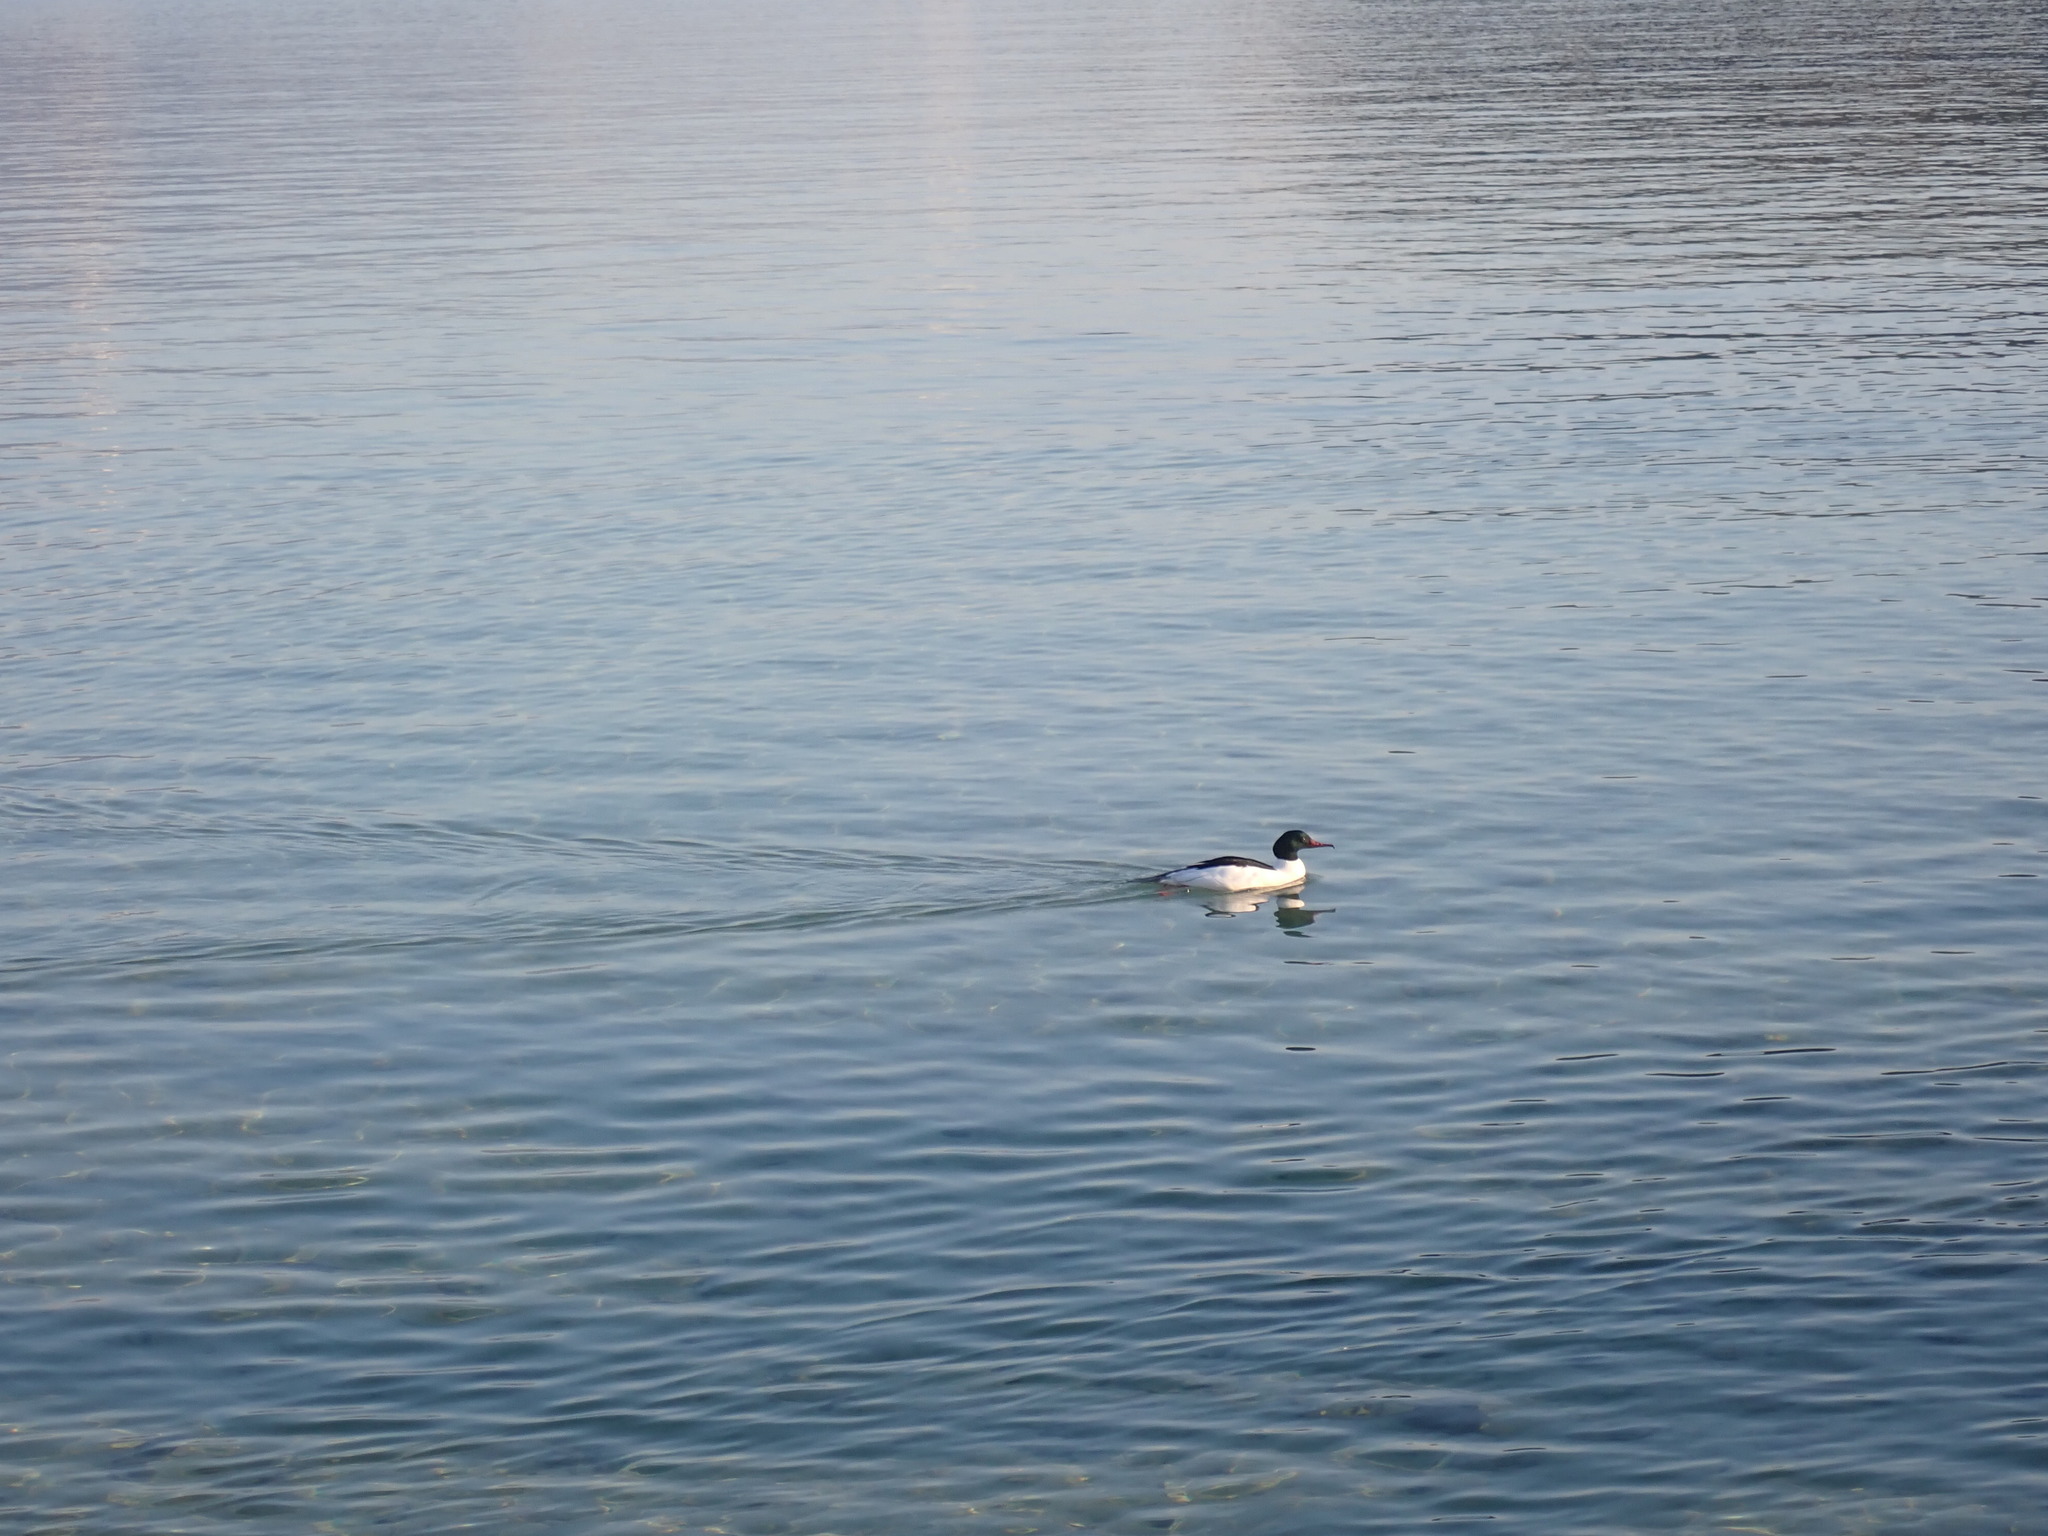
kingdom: Animalia
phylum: Chordata
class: Aves
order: Anseriformes
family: Anatidae
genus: Mergus
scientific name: Mergus merganser
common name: Common merganser
